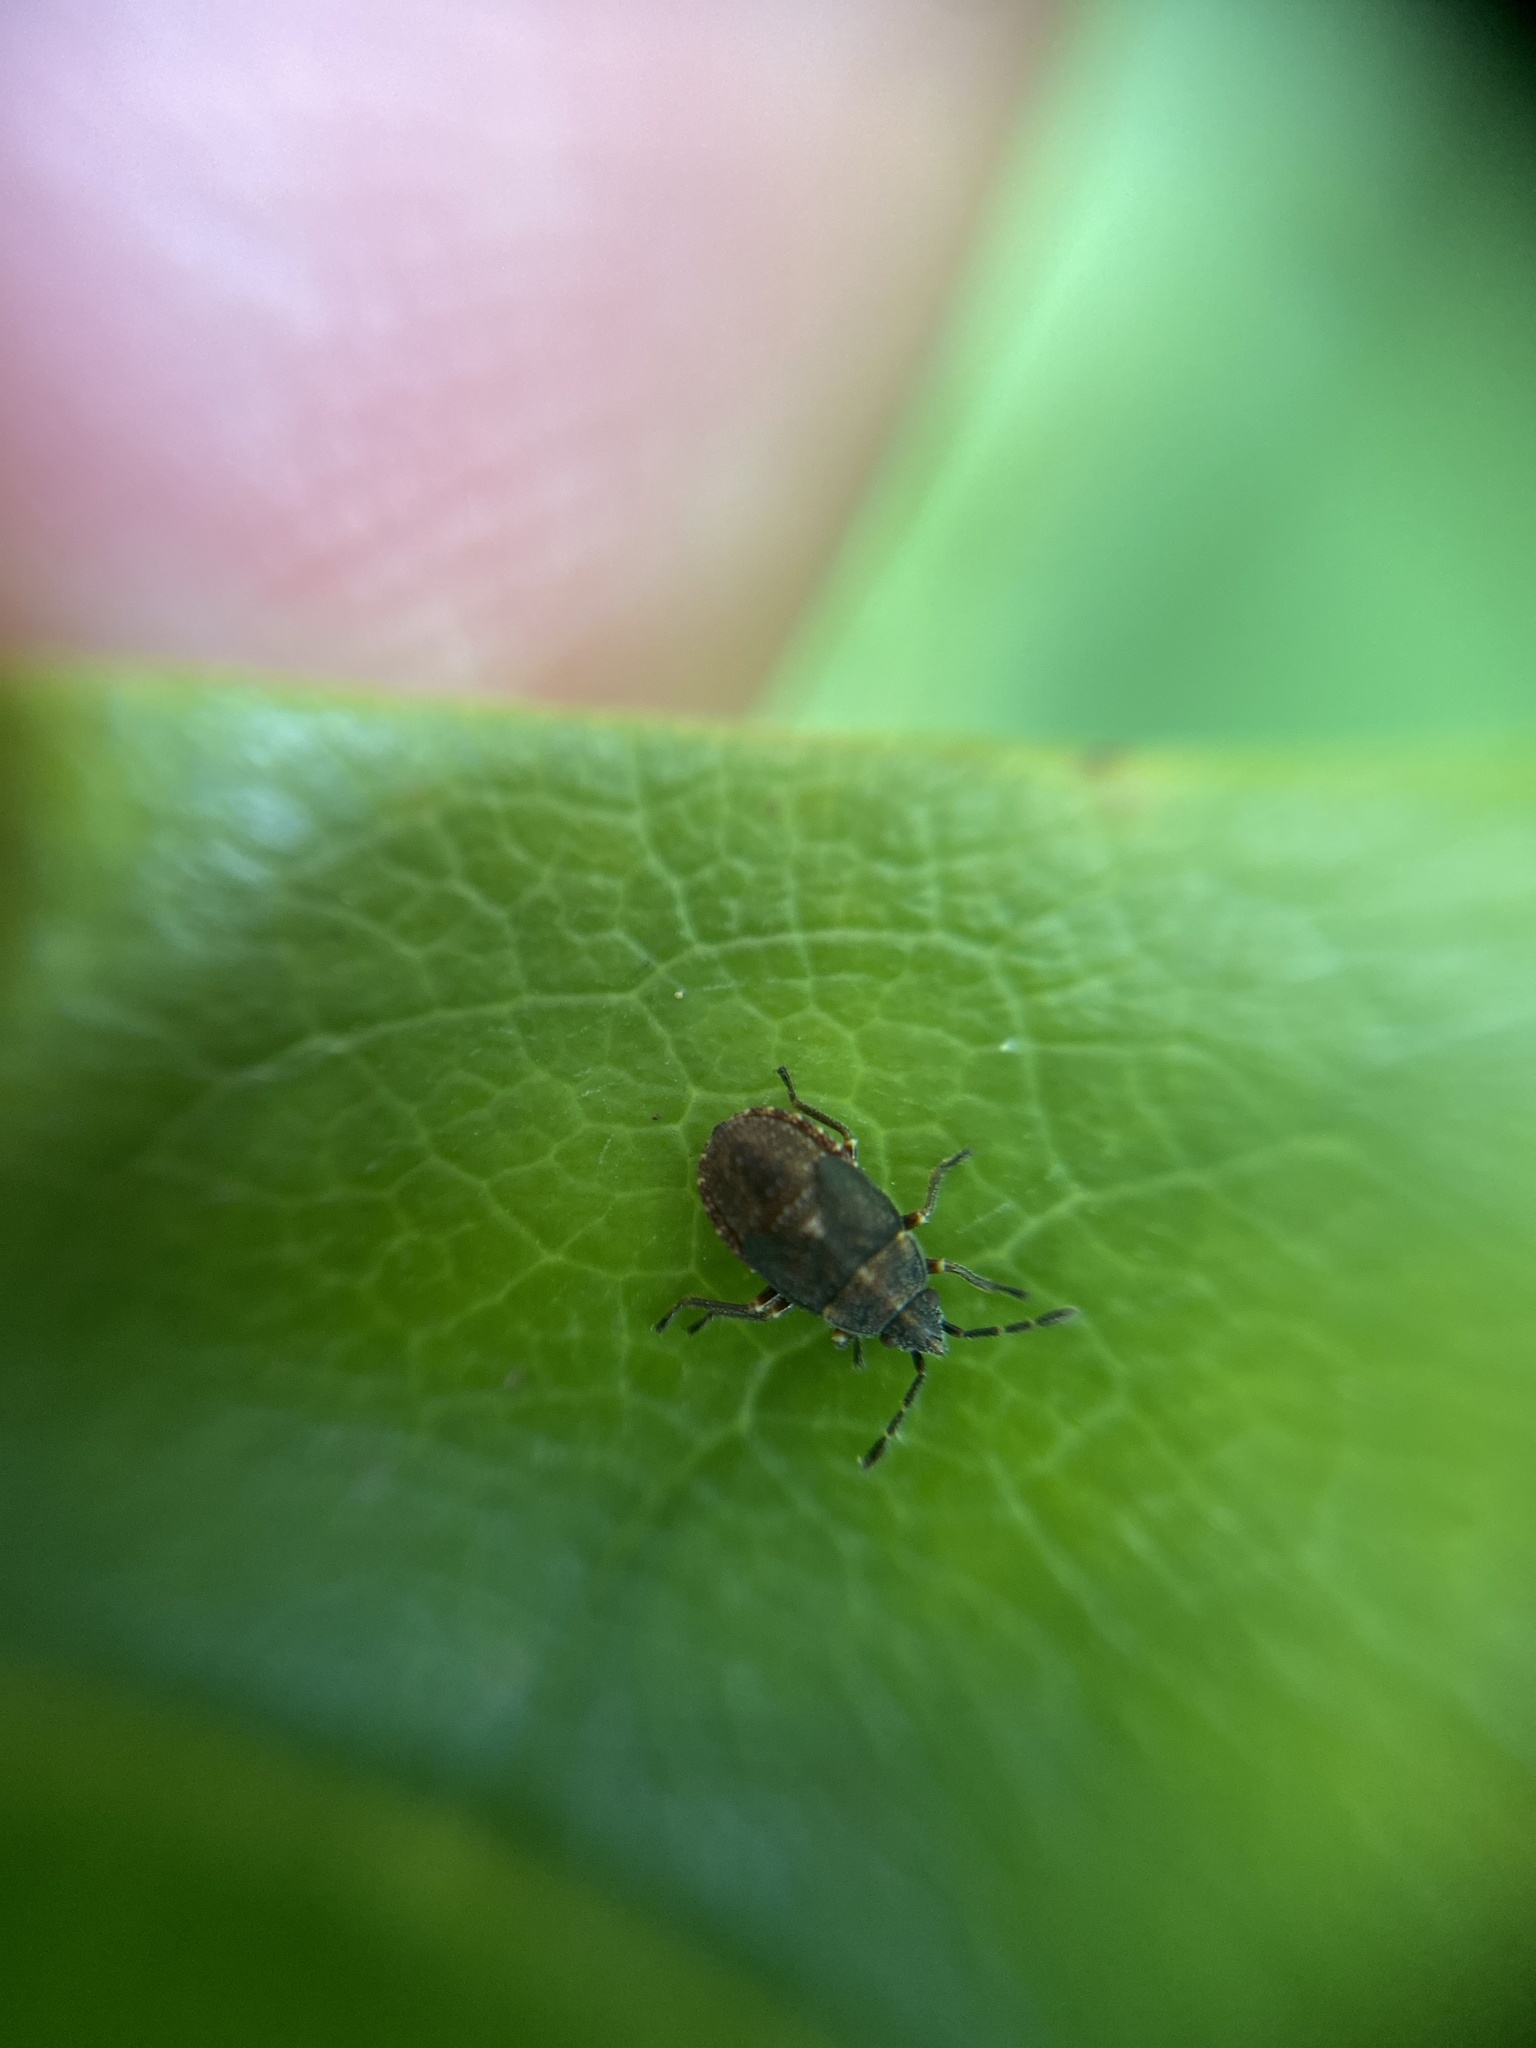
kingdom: Animalia
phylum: Arthropoda
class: Insecta
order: Hemiptera
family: Lygaeidae
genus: Kleidocerys
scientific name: Kleidocerys resedae
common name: Birch catkin bug
